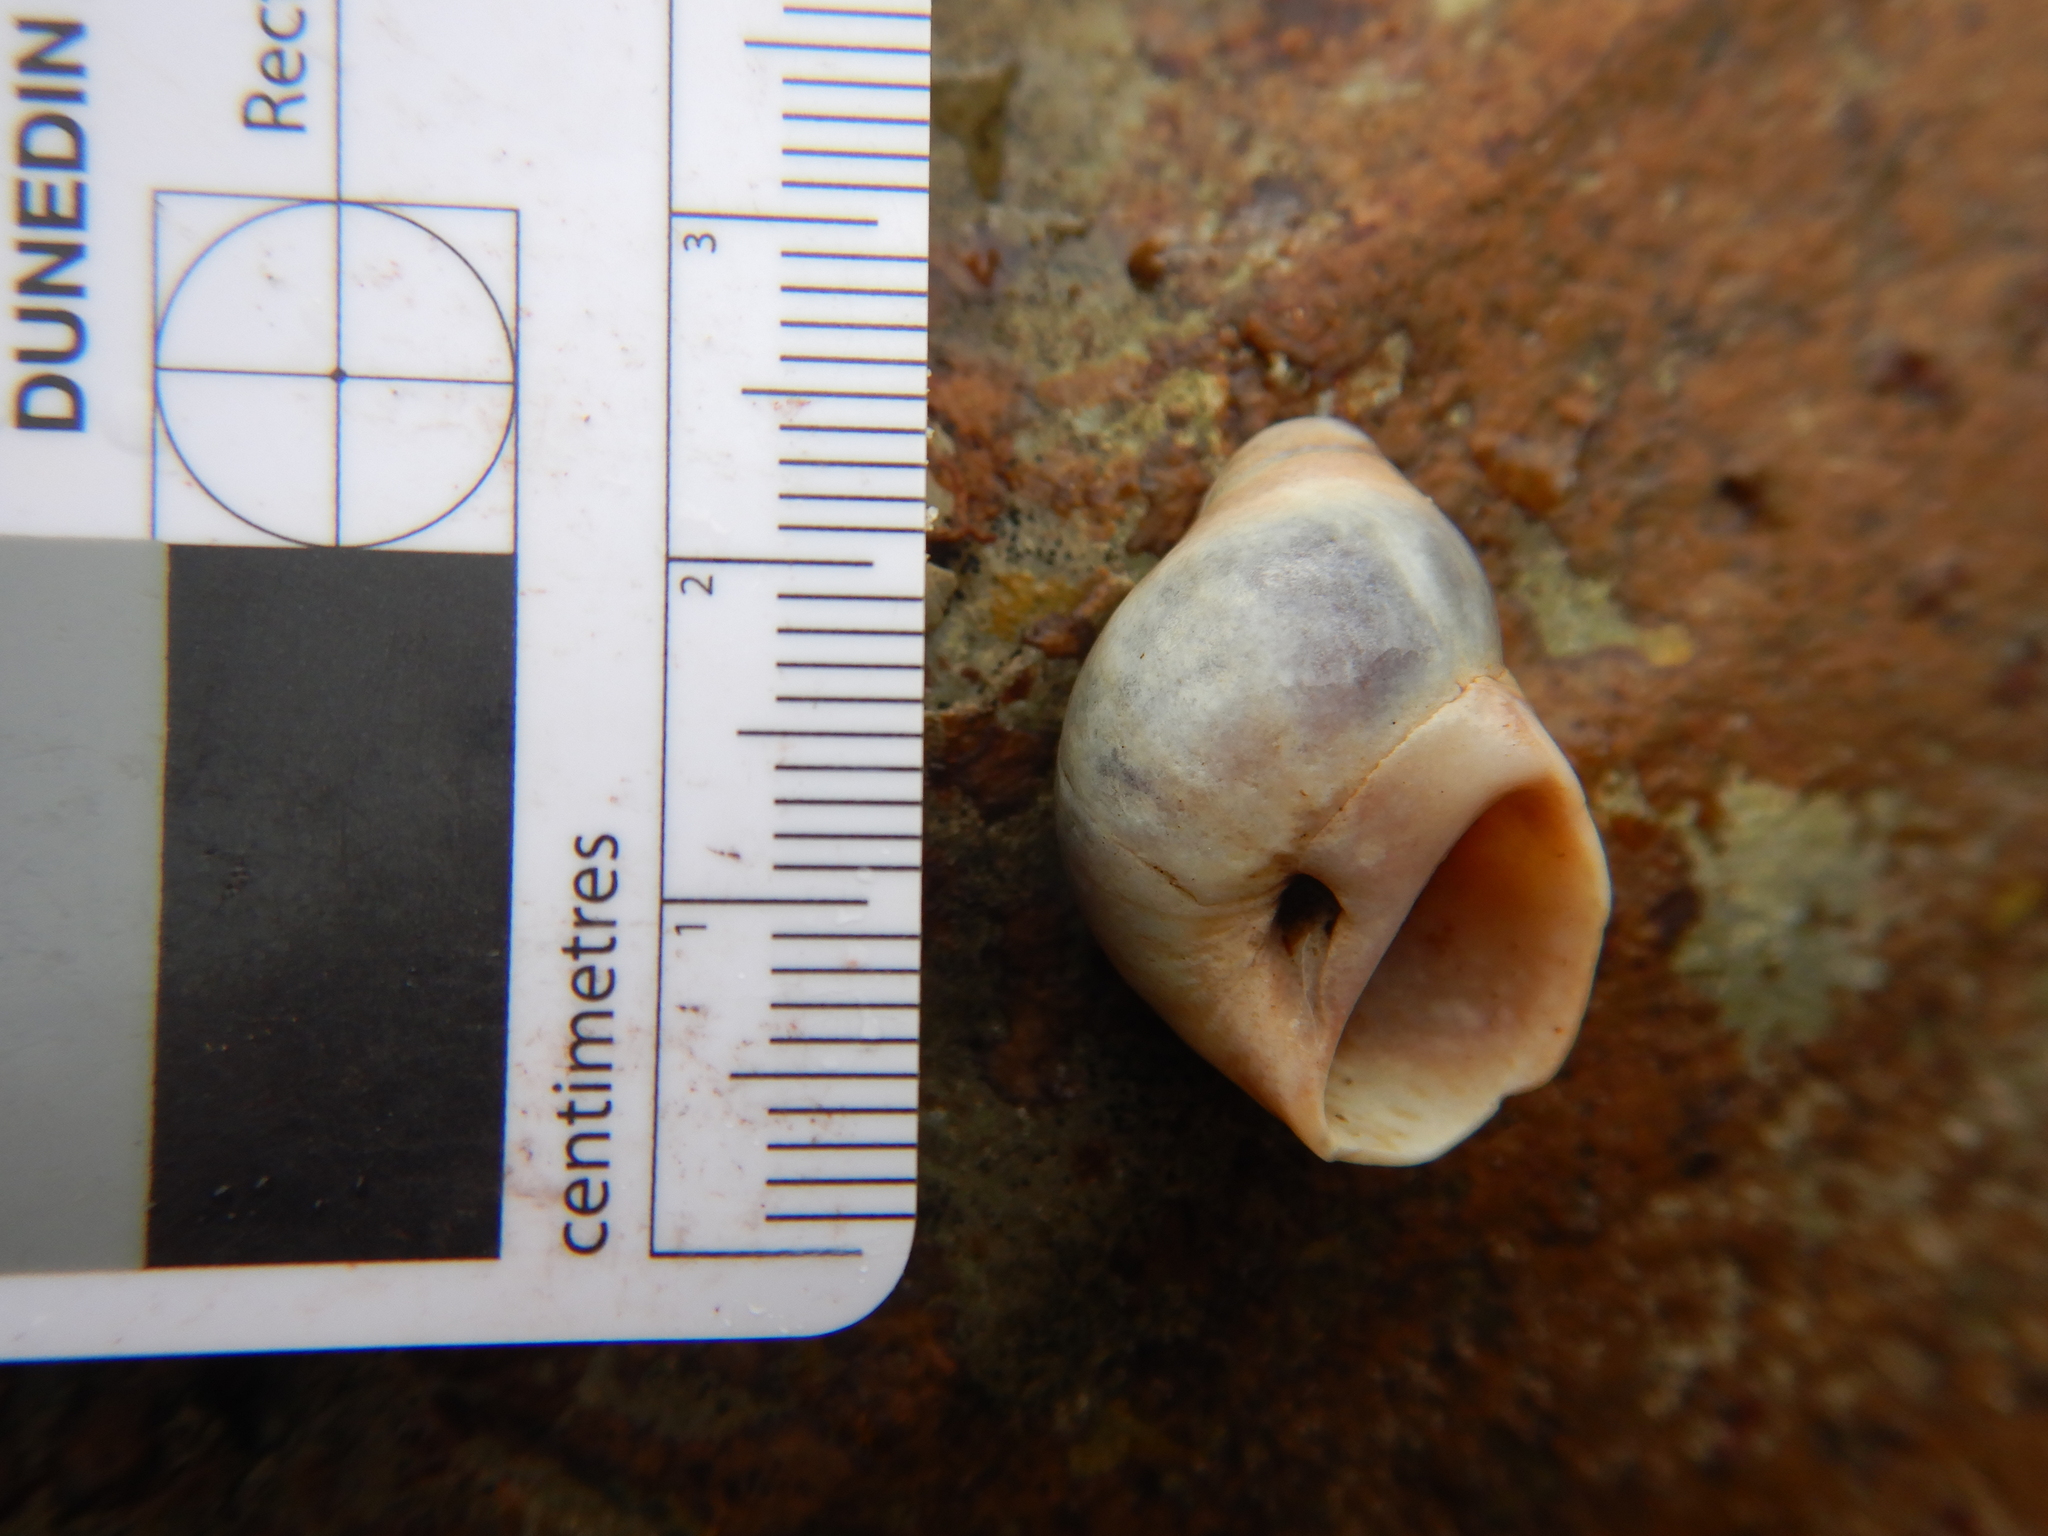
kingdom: Animalia
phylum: Mollusca
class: Gastropoda
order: Littorinimorpha
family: Naticidae
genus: Conuber
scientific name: Conuber conicum
